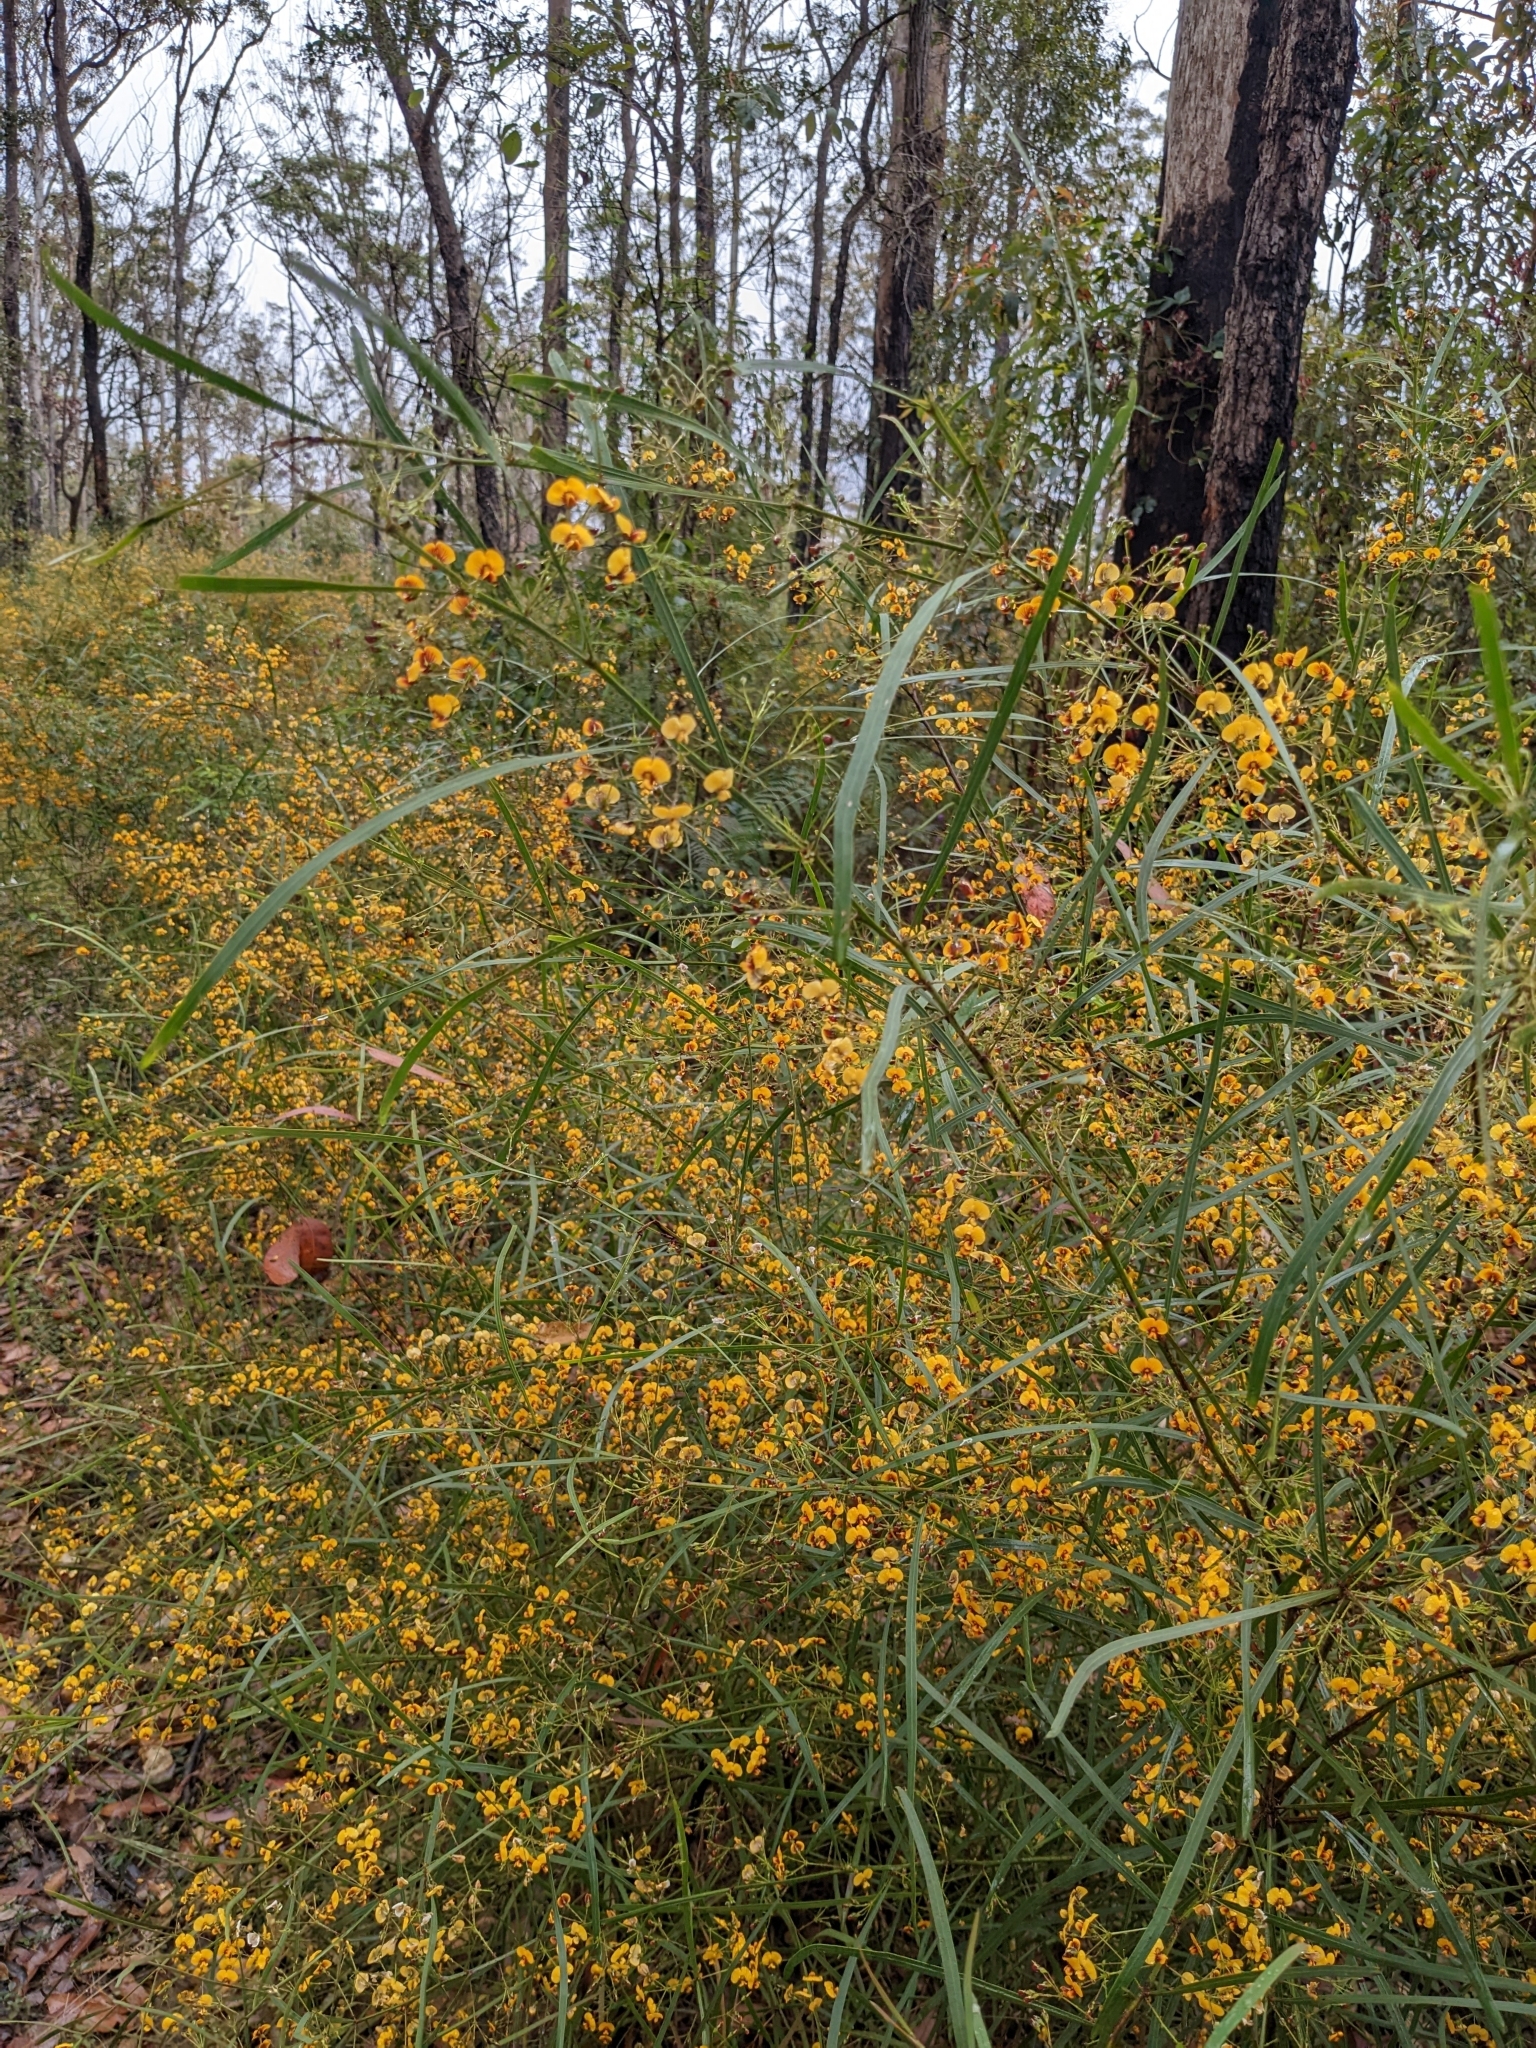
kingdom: Plantae
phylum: Tracheophyta
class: Magnoliopsida
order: Fabales
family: Fabaceae
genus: Daviesia
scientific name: Daviesia wyattiana
